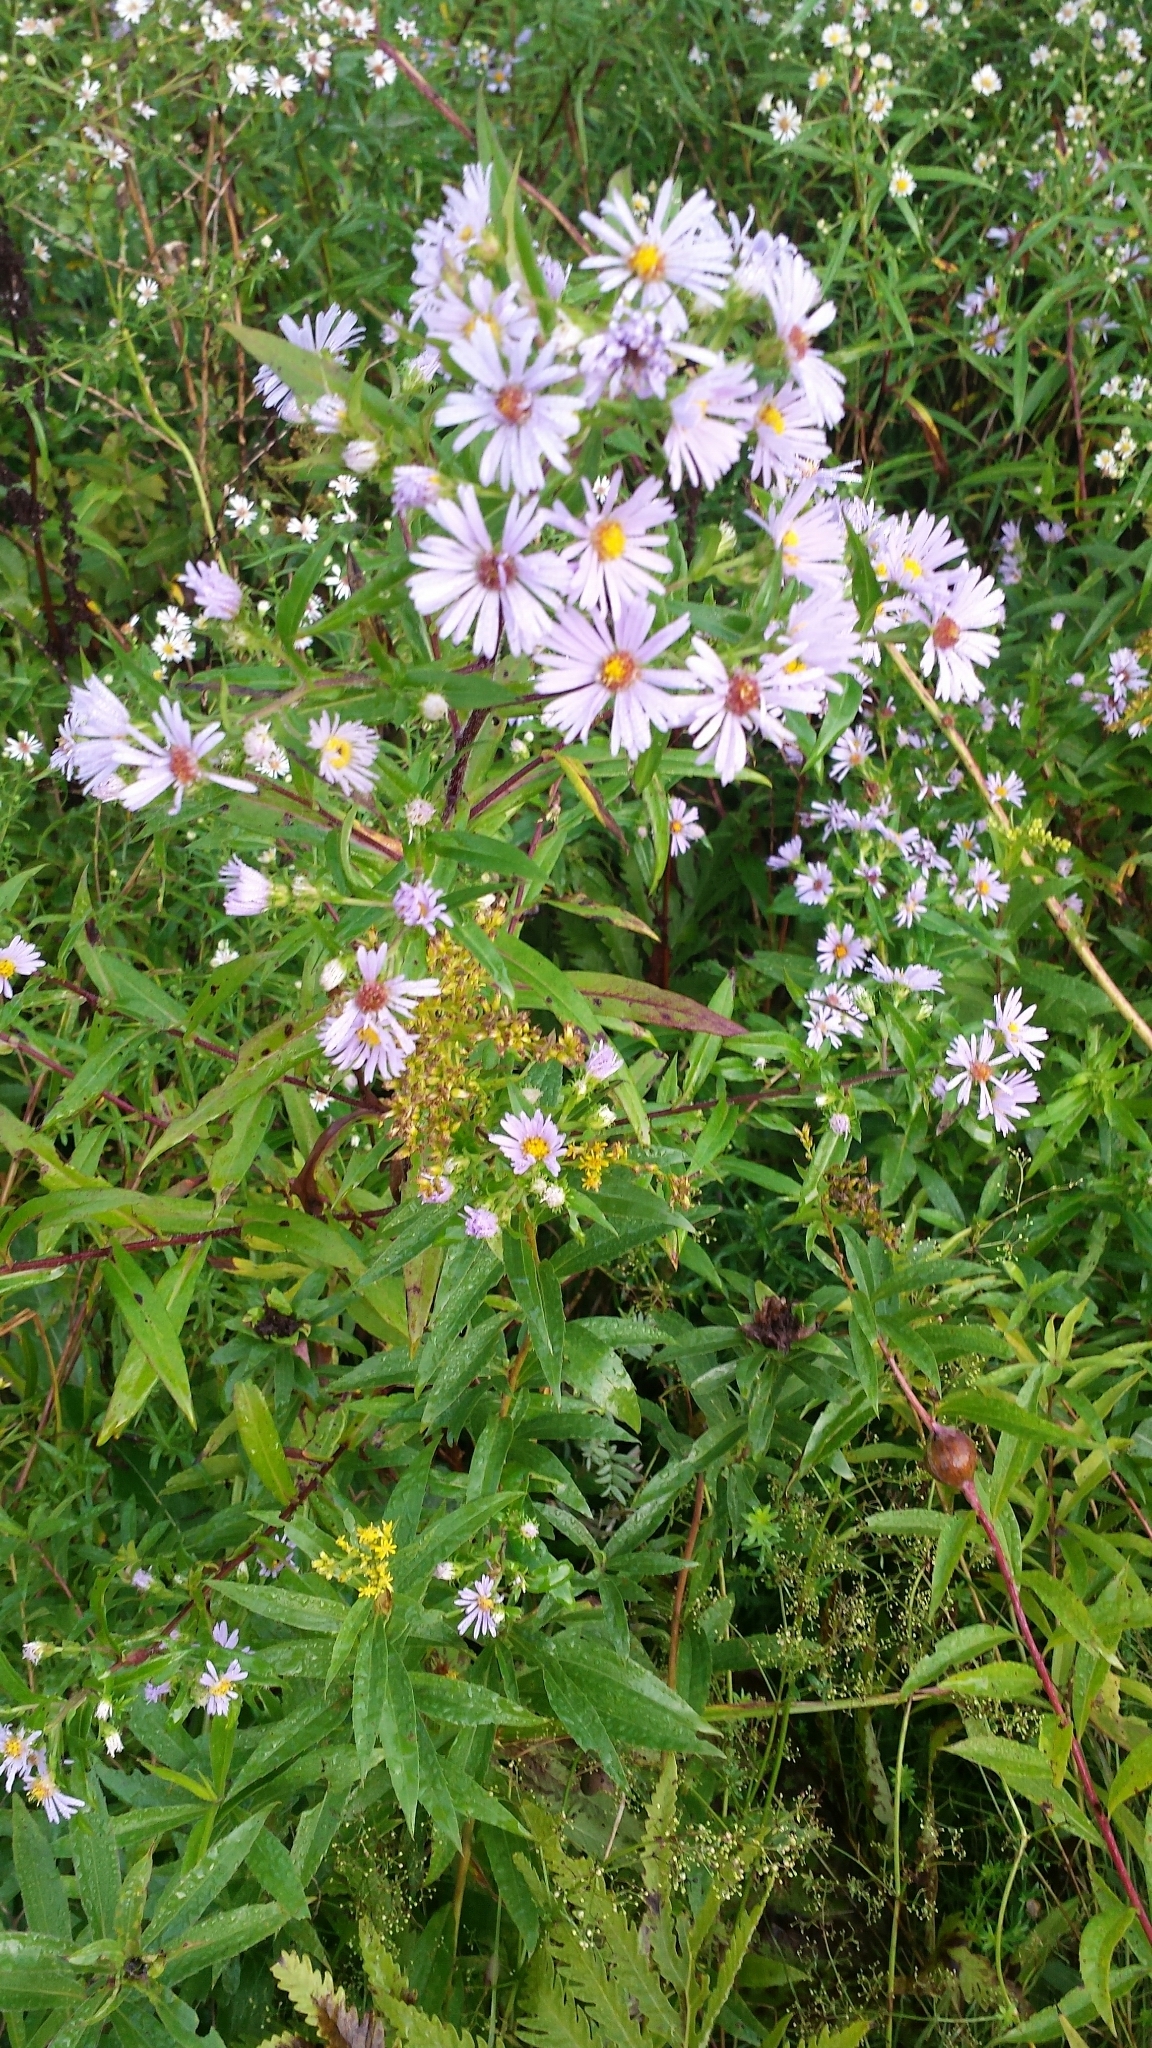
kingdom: Plantae
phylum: Tracheophyta
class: Magnoliopsida
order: Asterales
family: Asteraceae
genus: Symphyotrichum
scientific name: Symphyotrichum novae-angliae
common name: Michaelmas daisy
